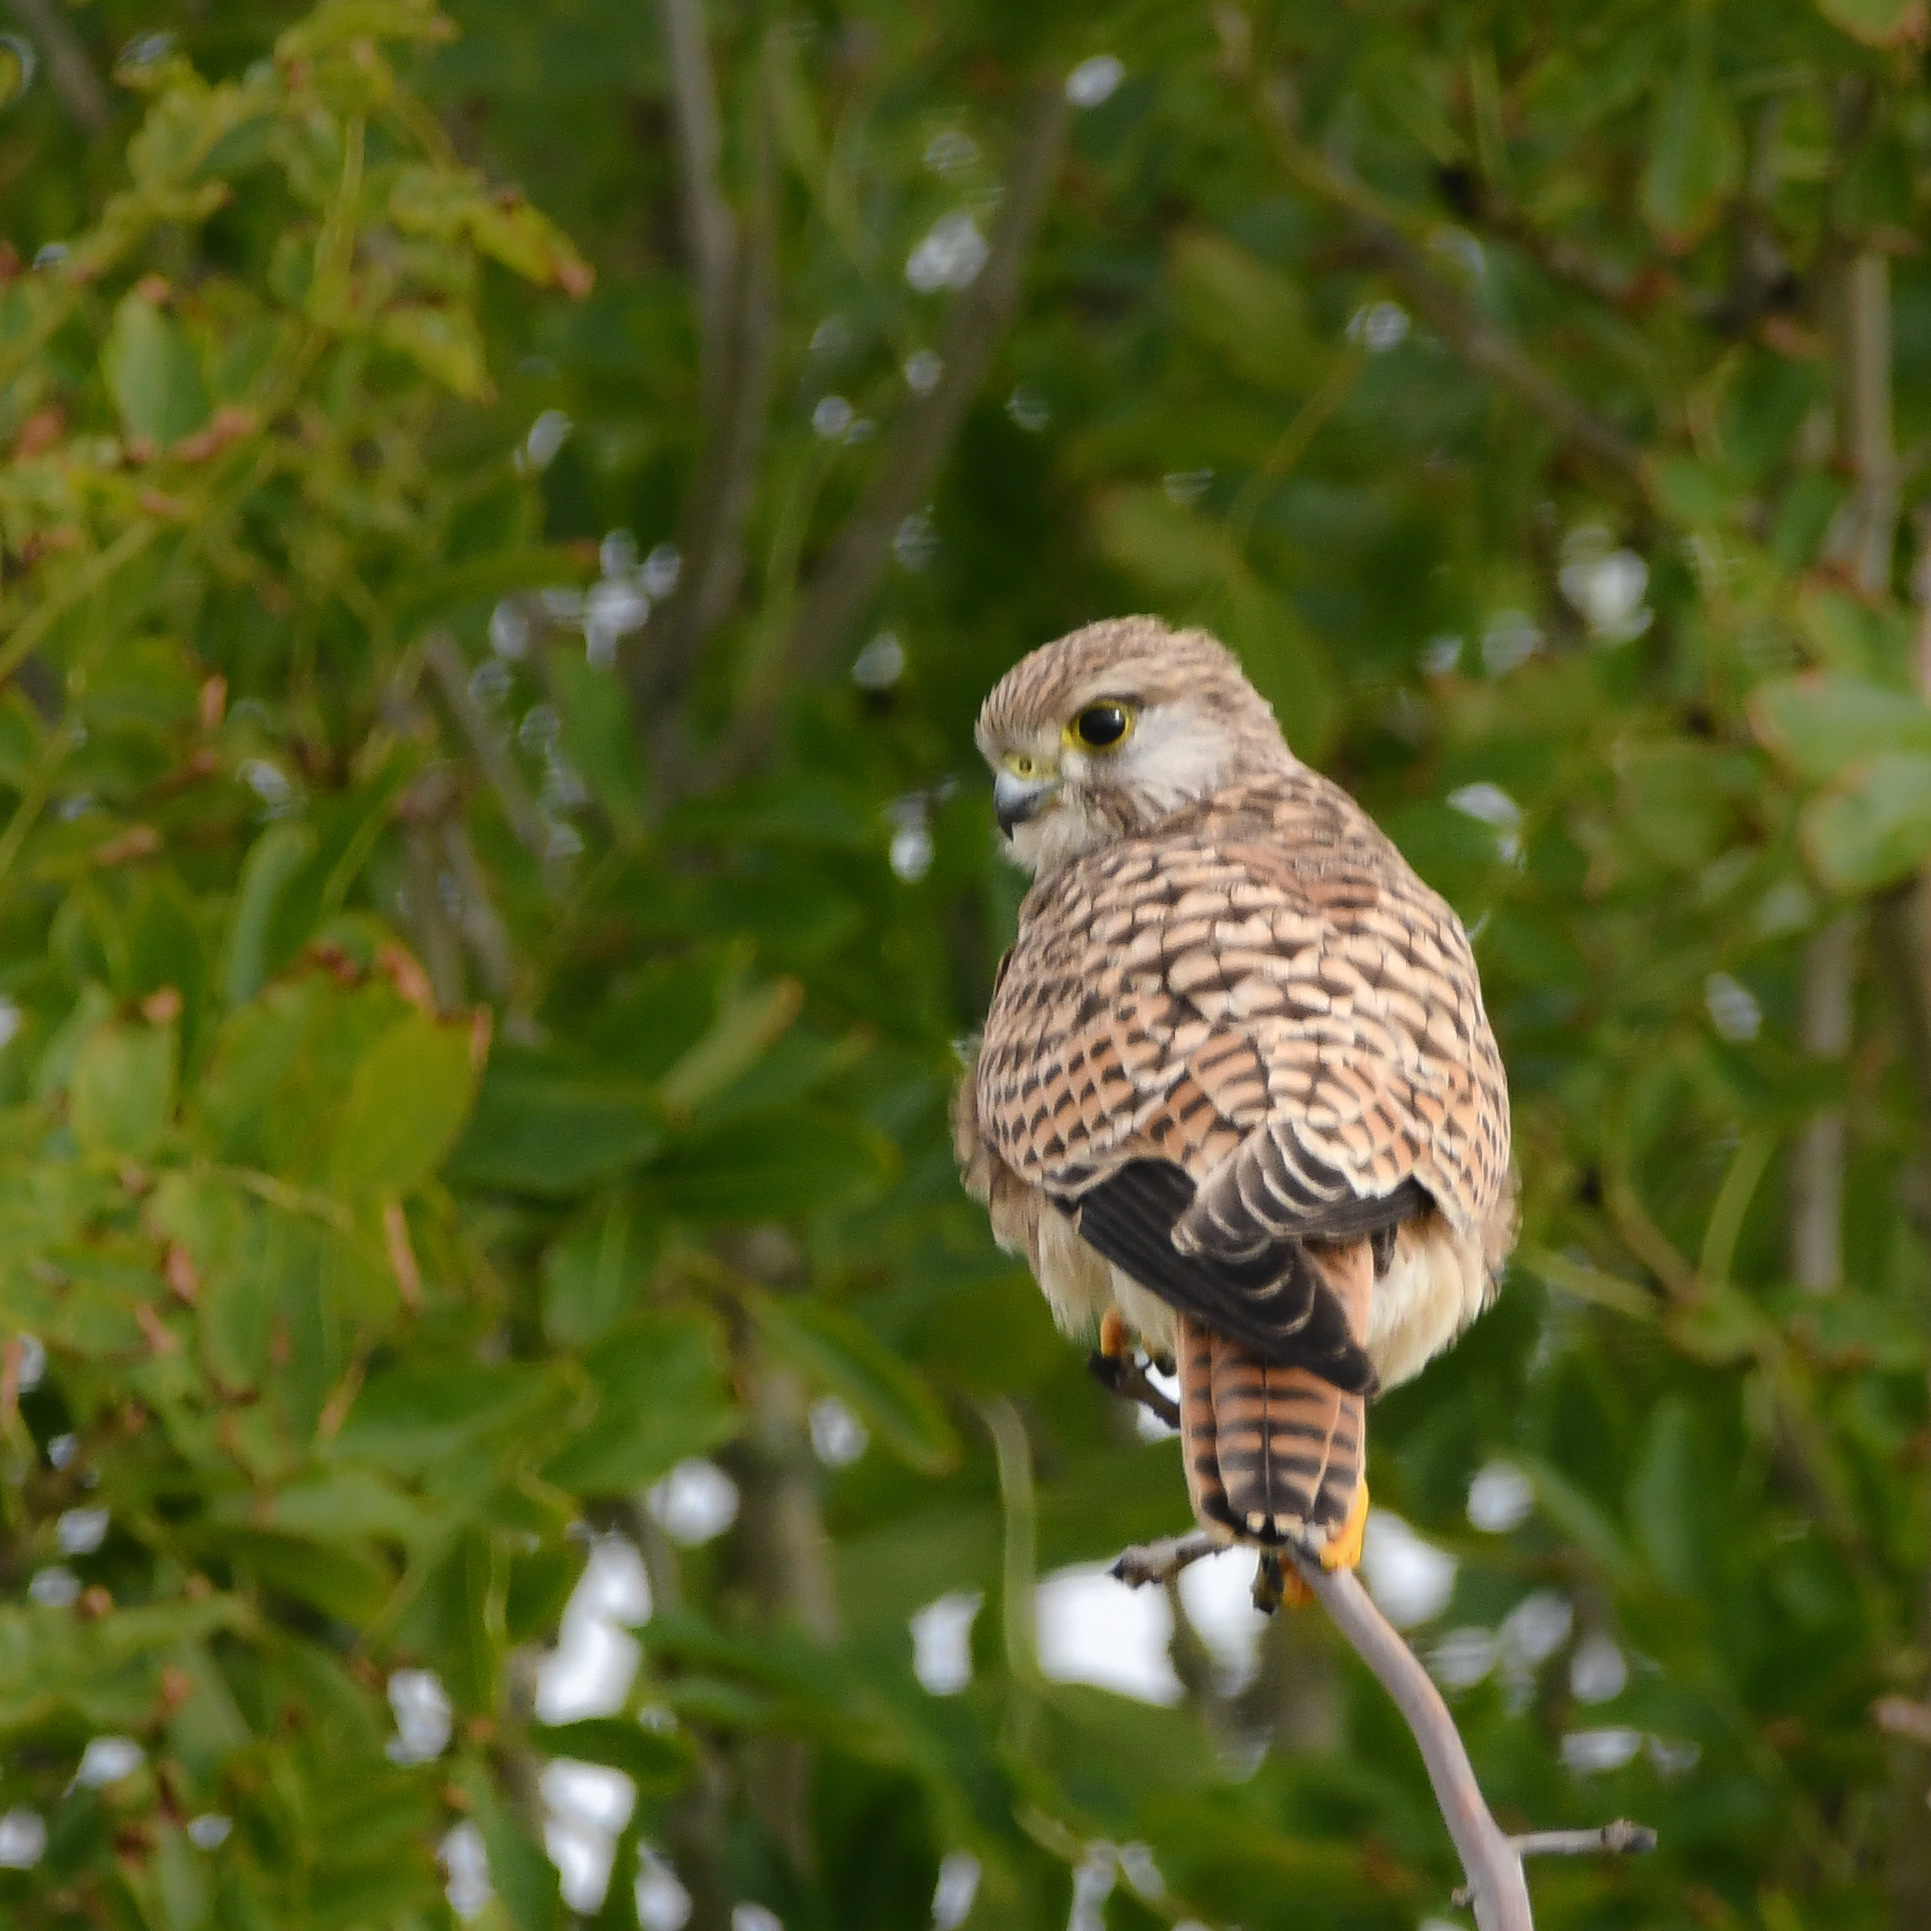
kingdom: Animalia
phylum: Chordata
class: Aves
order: Falconiformes
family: Falconidae
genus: Falco
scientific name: Falco tinnunculus
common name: Common kestrel
